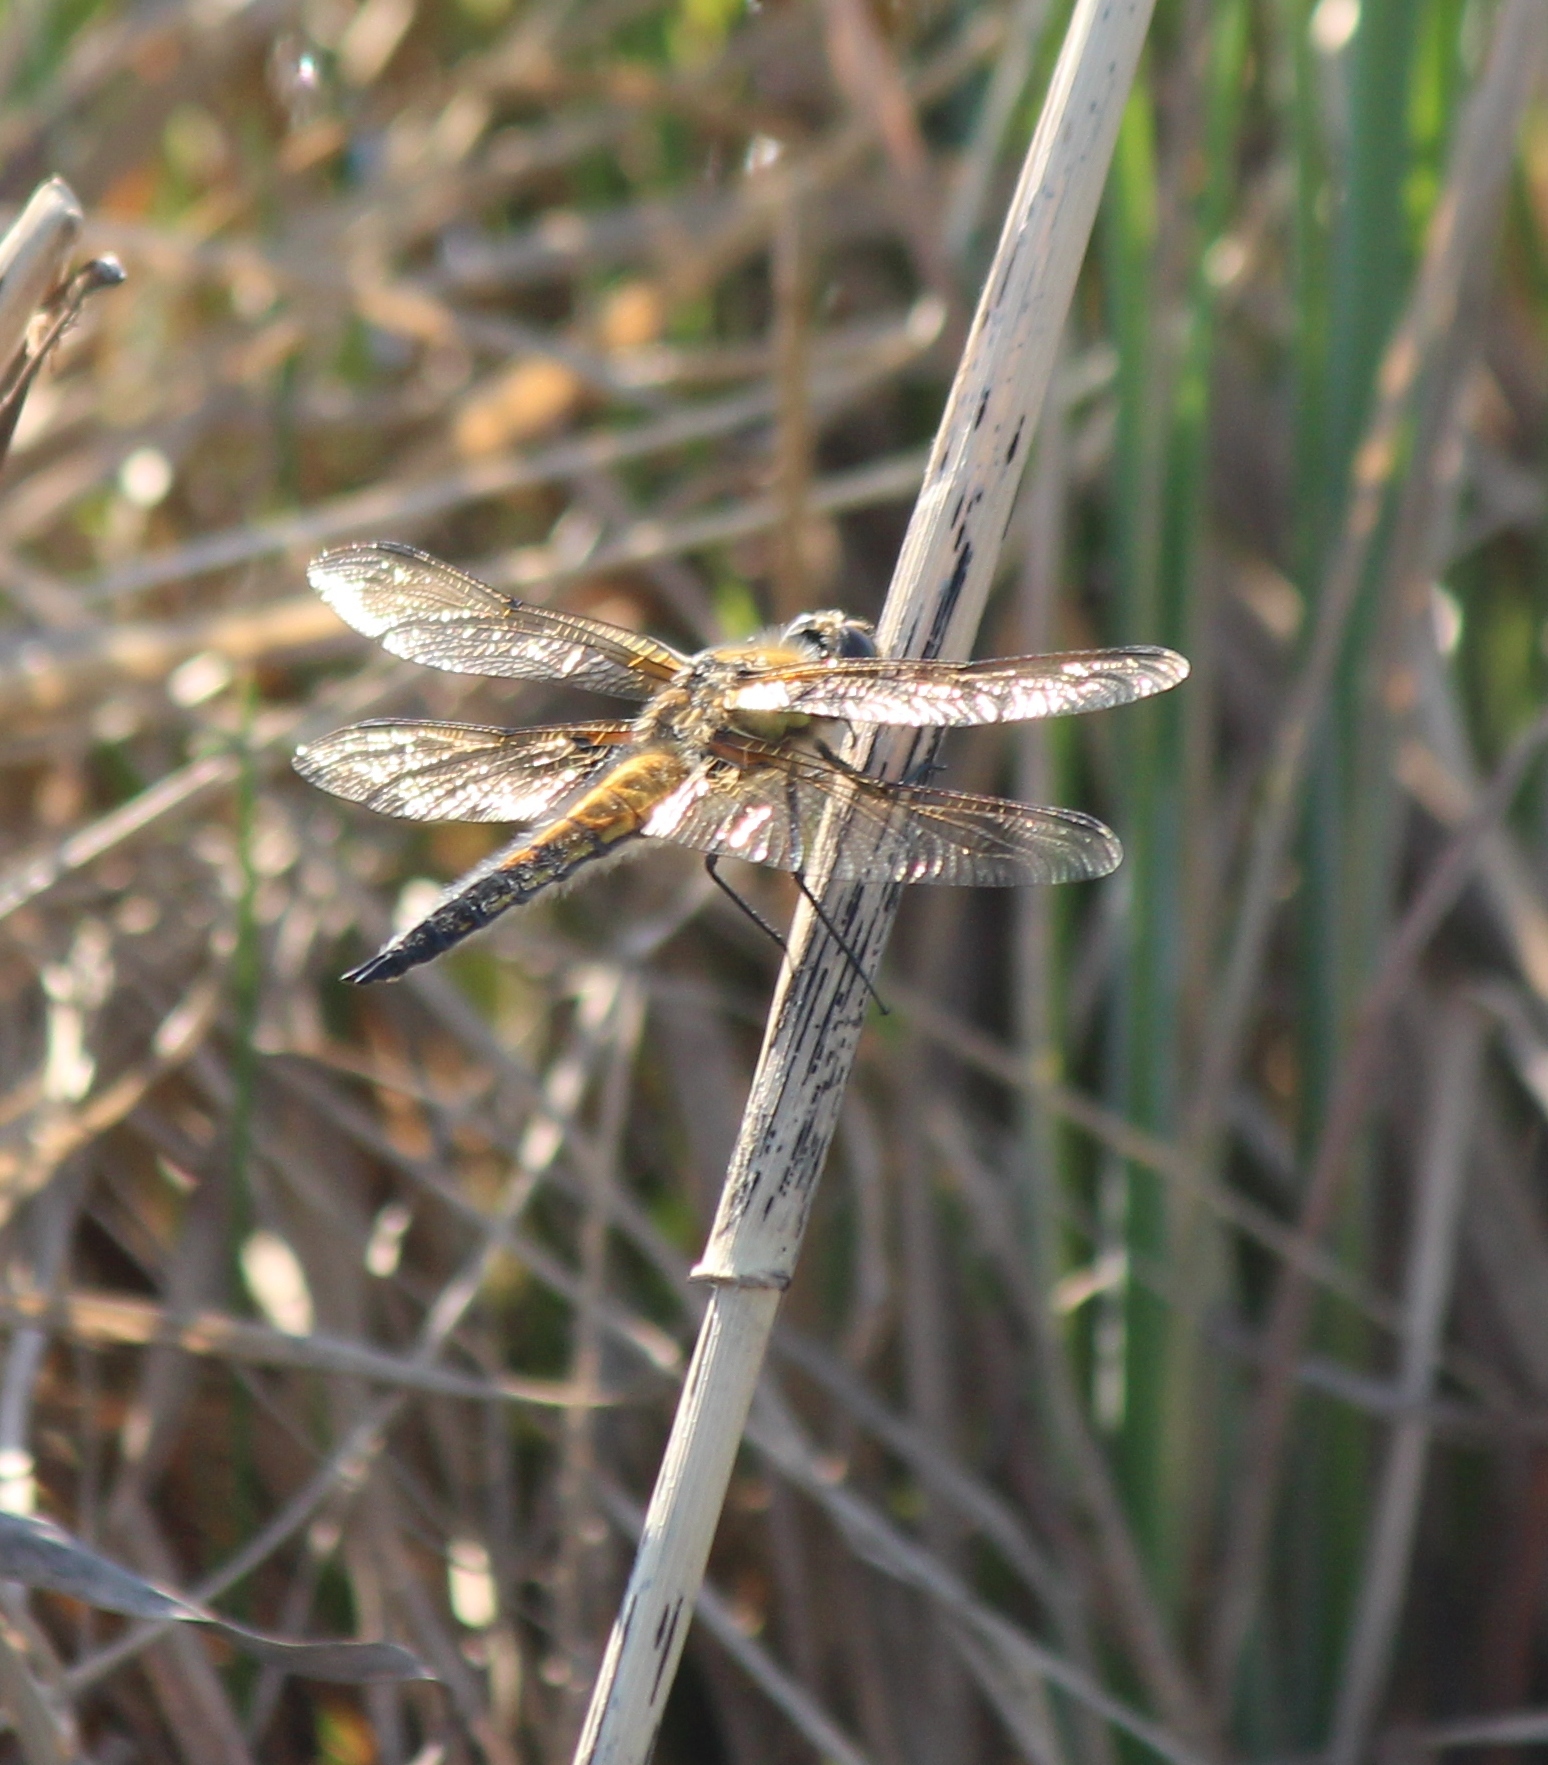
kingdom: Animalia
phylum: Arthropoda
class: Insecta
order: Odonata
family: Libellulidae
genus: Libellula
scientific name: Libellula quadrimaculata
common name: Four-spotted chaser
